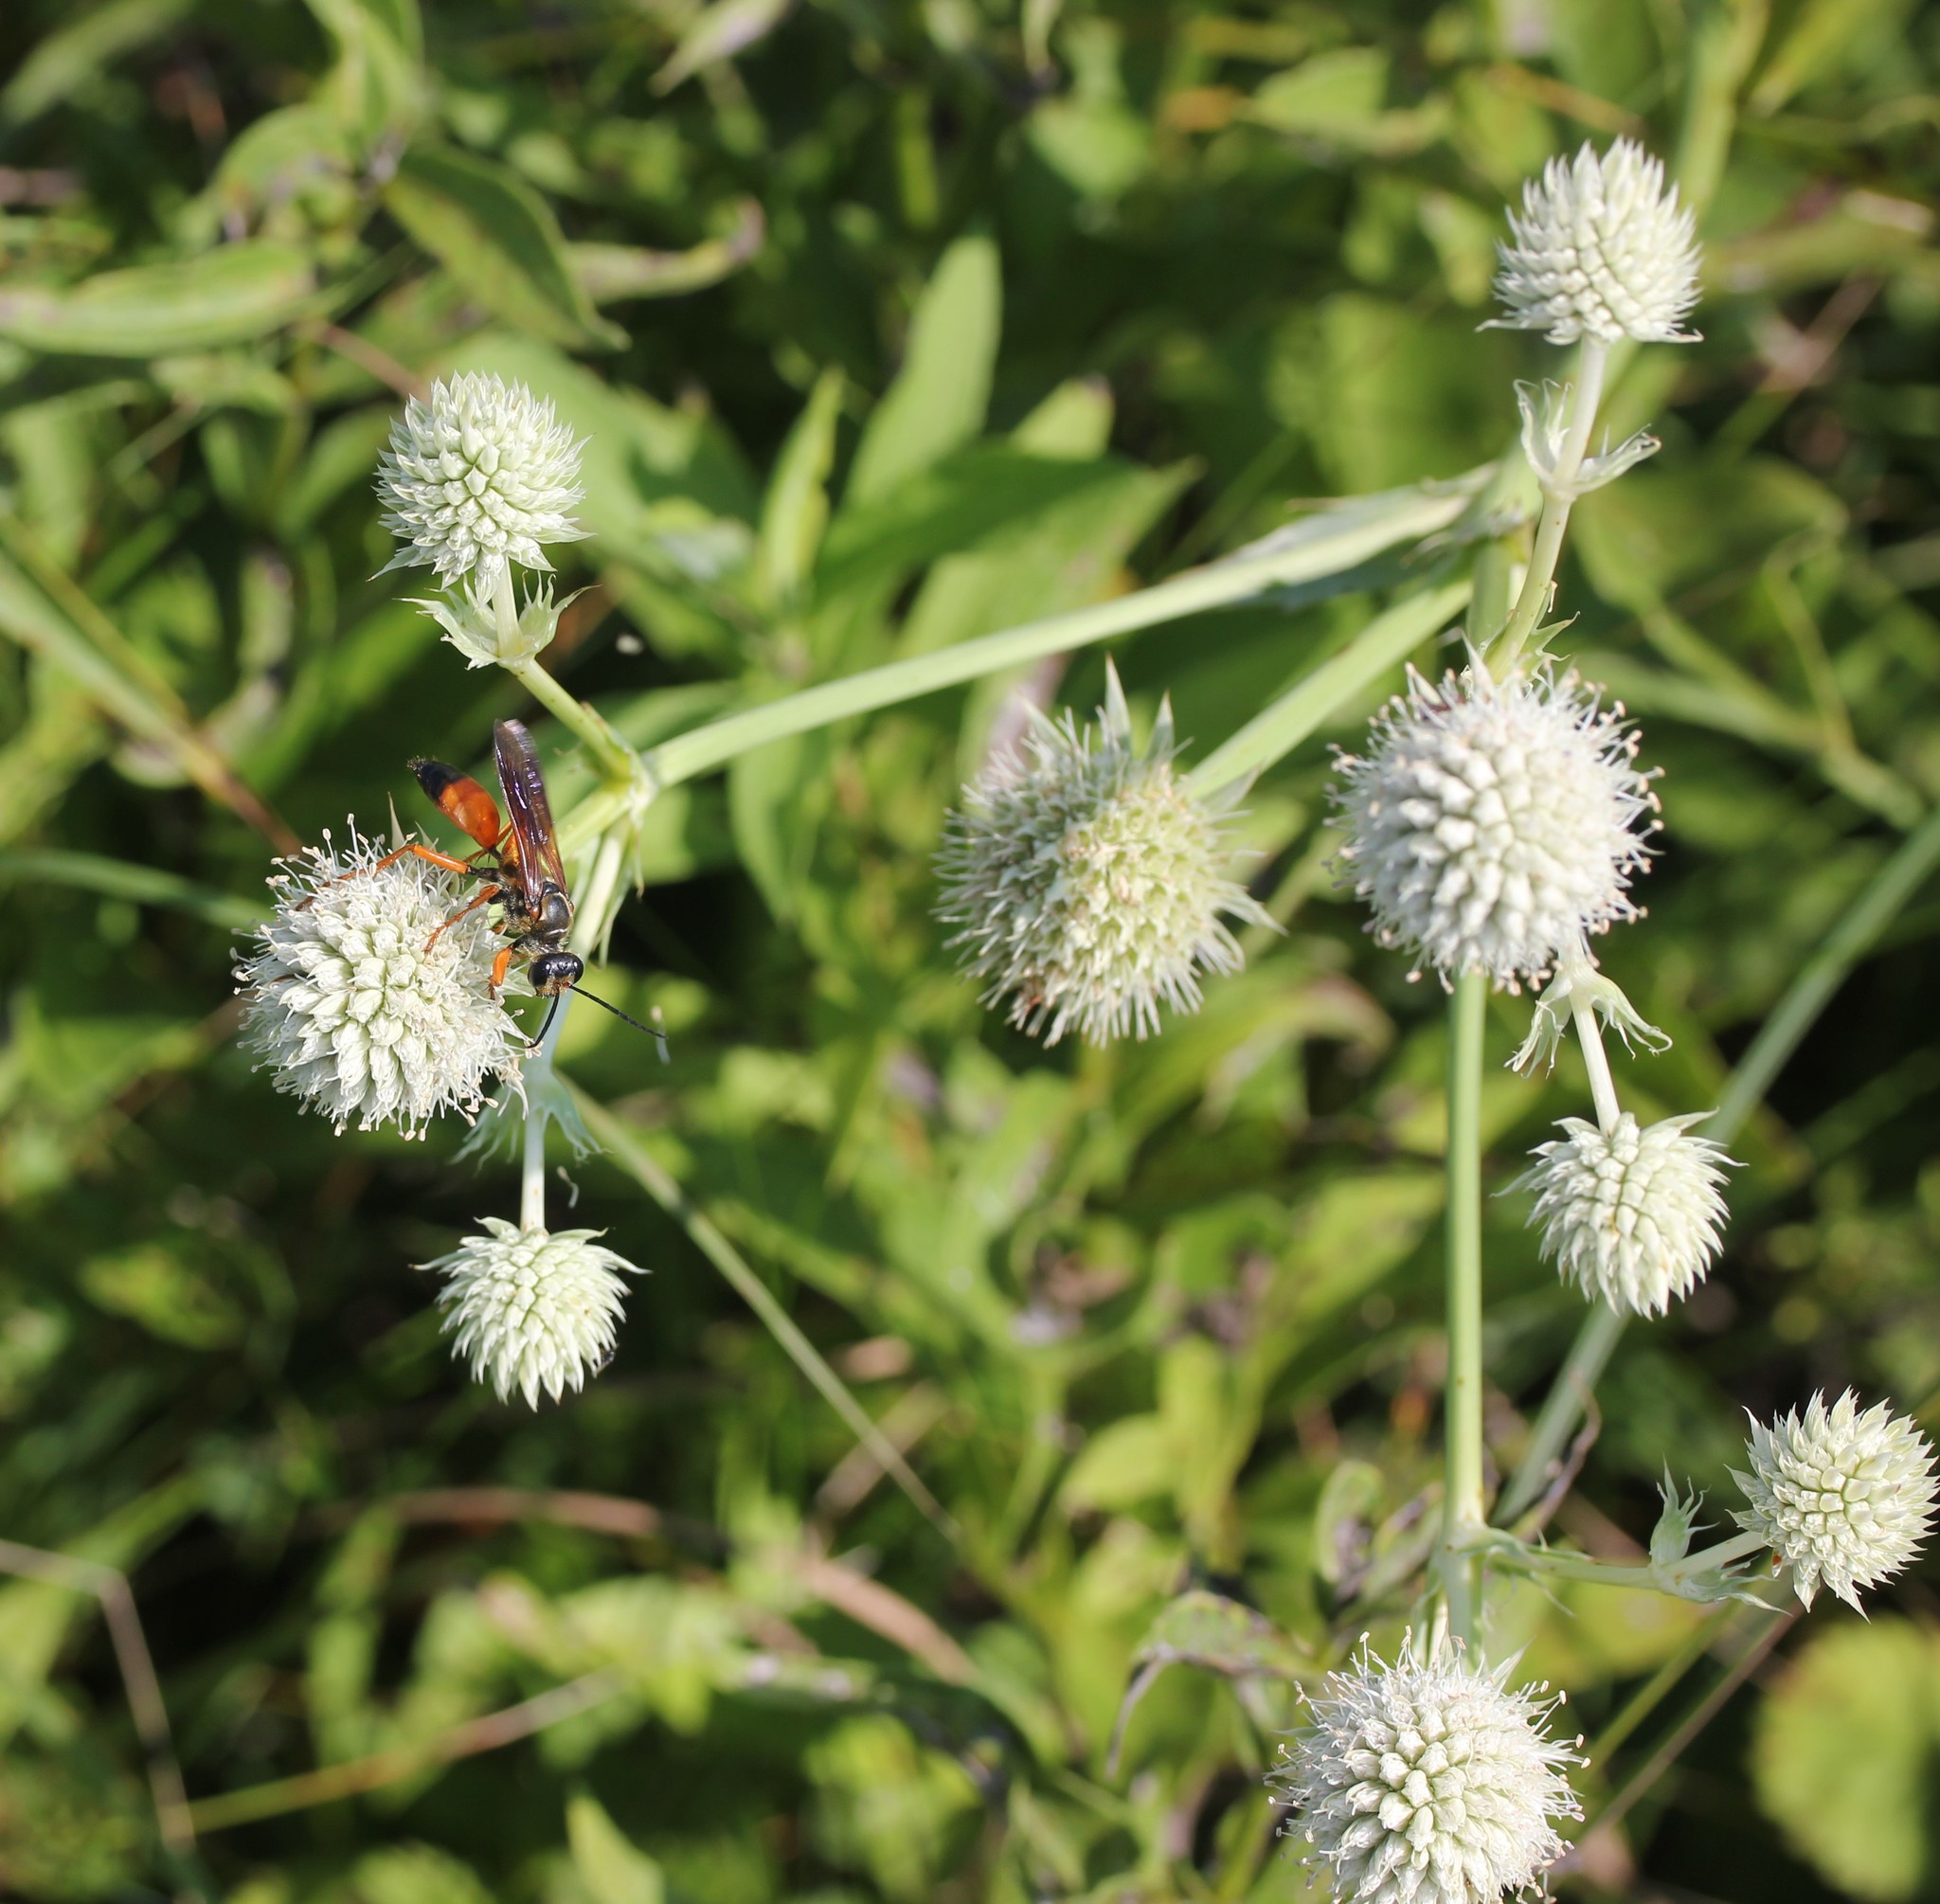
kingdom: Plantae
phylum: Tracheophyta
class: Magnoliopsida
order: Apiales
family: Apiaceae
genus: Eryngium
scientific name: Eryngium yuccifolium
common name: Button eryngo
